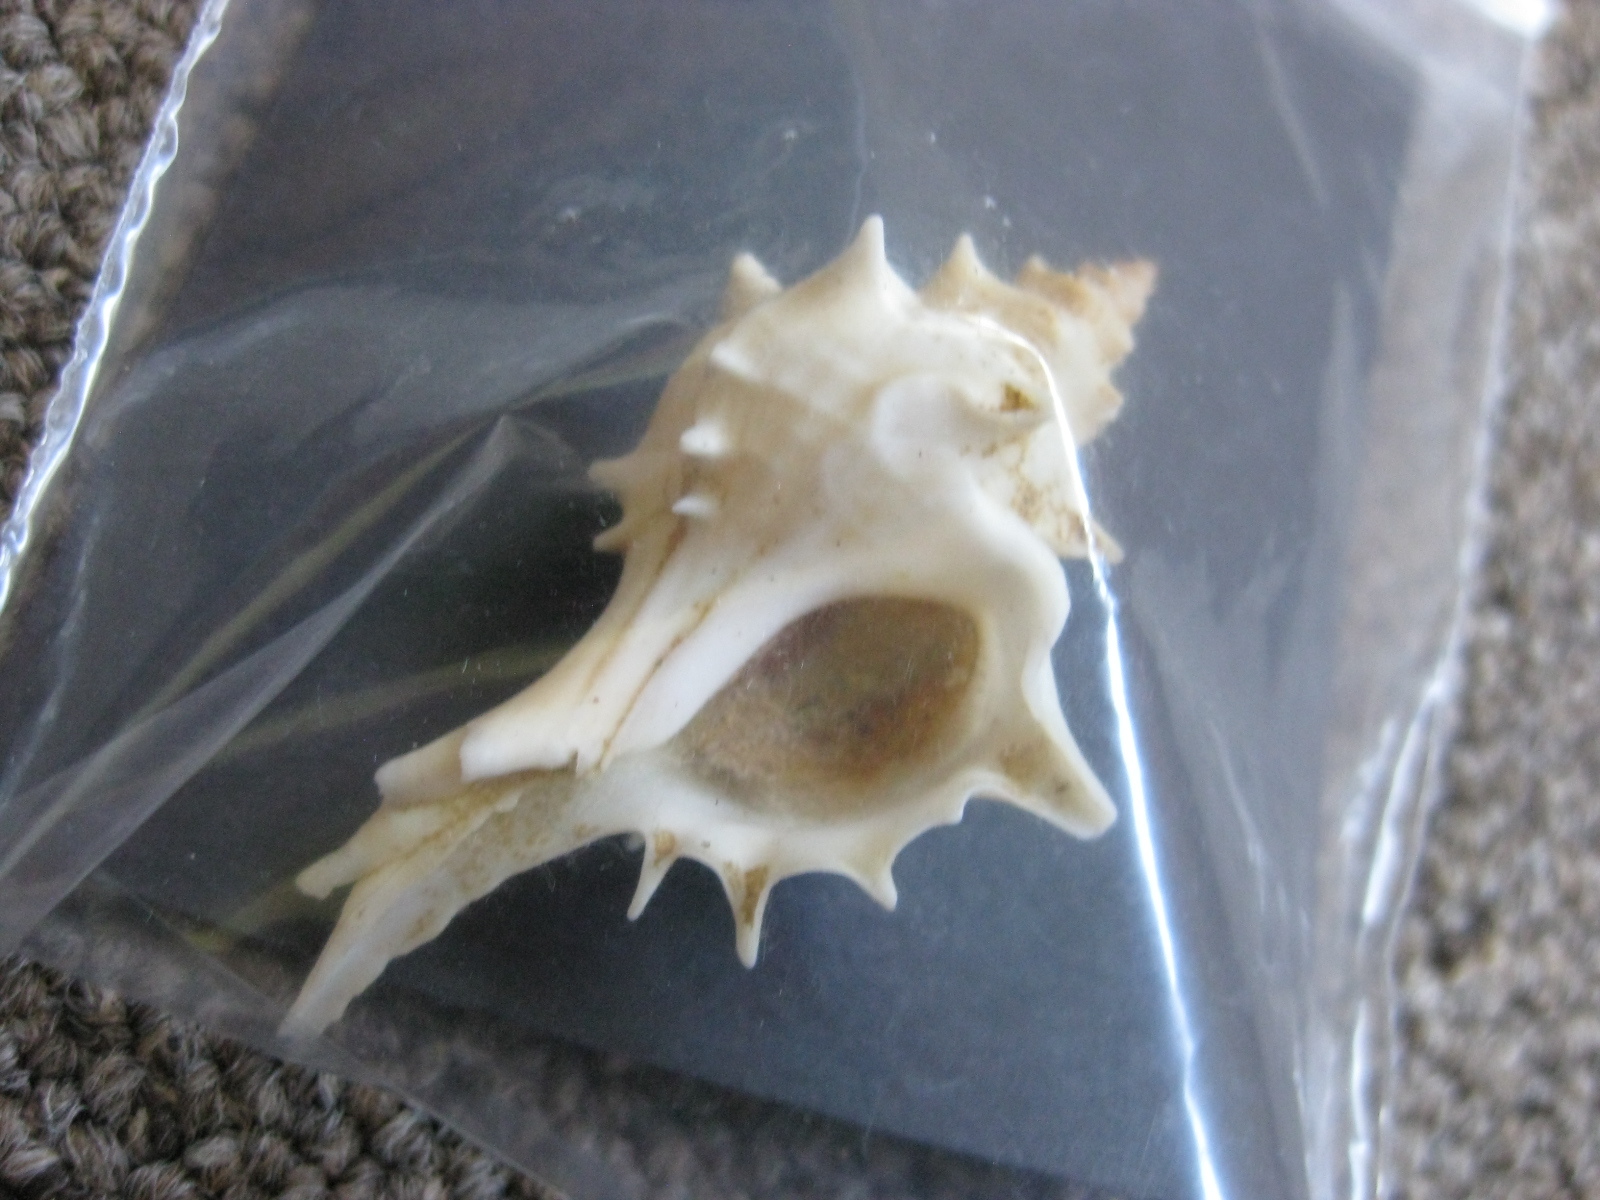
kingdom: Animalia
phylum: Mollusca
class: Gastropoda
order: Neogastropoda
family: Muricidae
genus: Poirieria
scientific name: Poirieria zelandica
